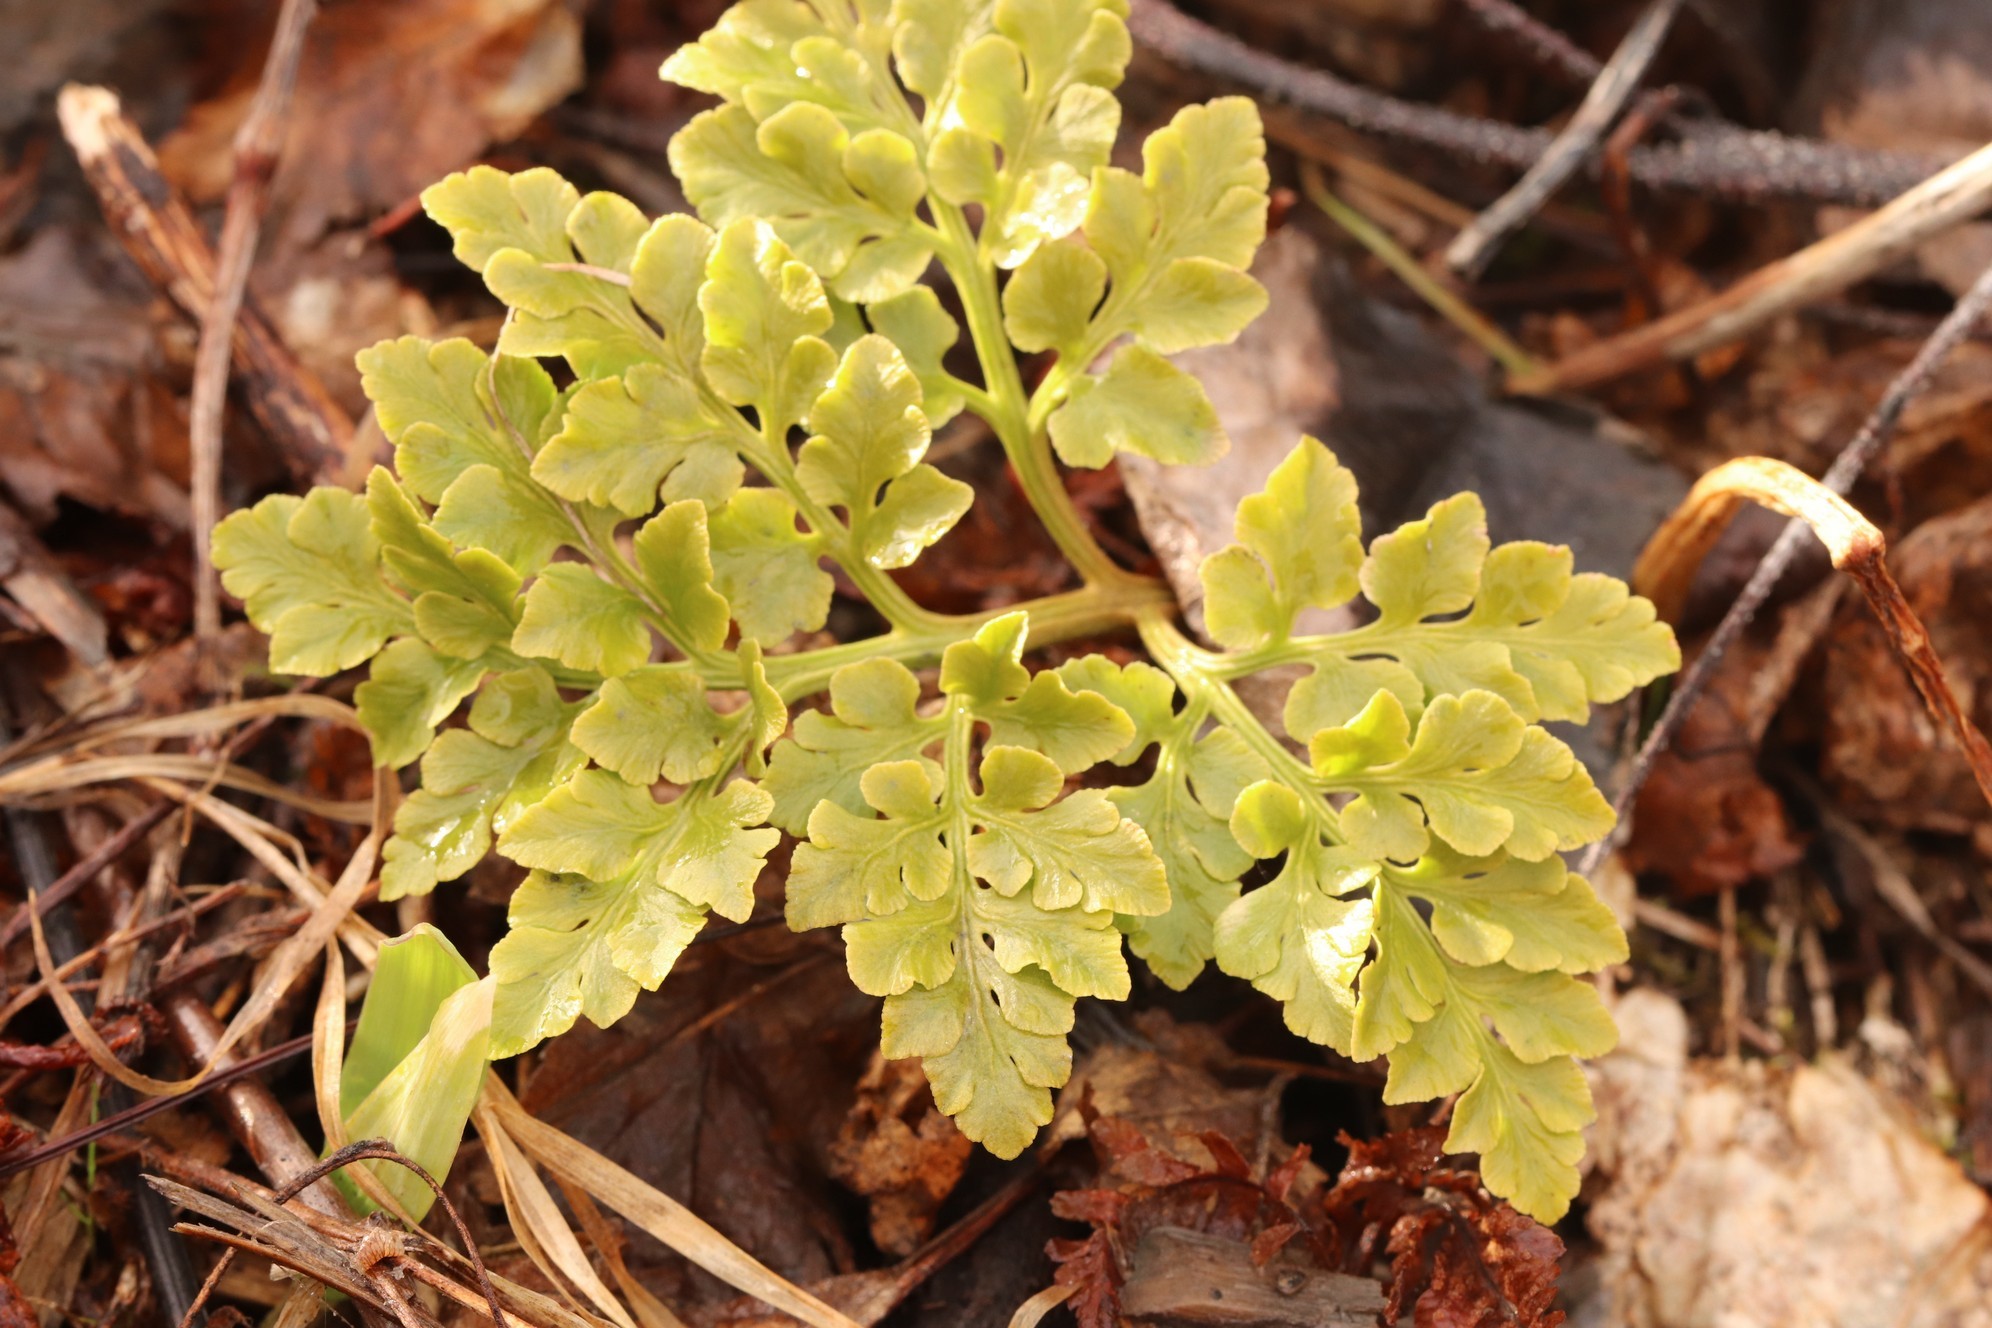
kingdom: Plantae
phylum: Tracheophyta
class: Polypodiopsida
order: Ophioglossales
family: Ophioglossaceae
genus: Sceptridium
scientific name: Sceptridium multifidum
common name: Leathery grape fern
